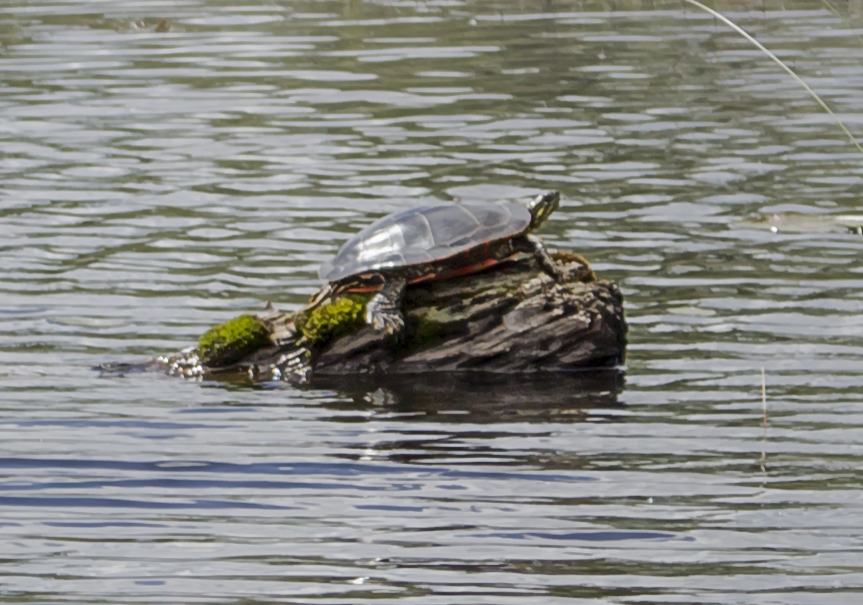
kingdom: Animalia
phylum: Chordata
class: Testudines
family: Emydidae
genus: Chrysemys
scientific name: Chrysemys picta
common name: Painted turtle
